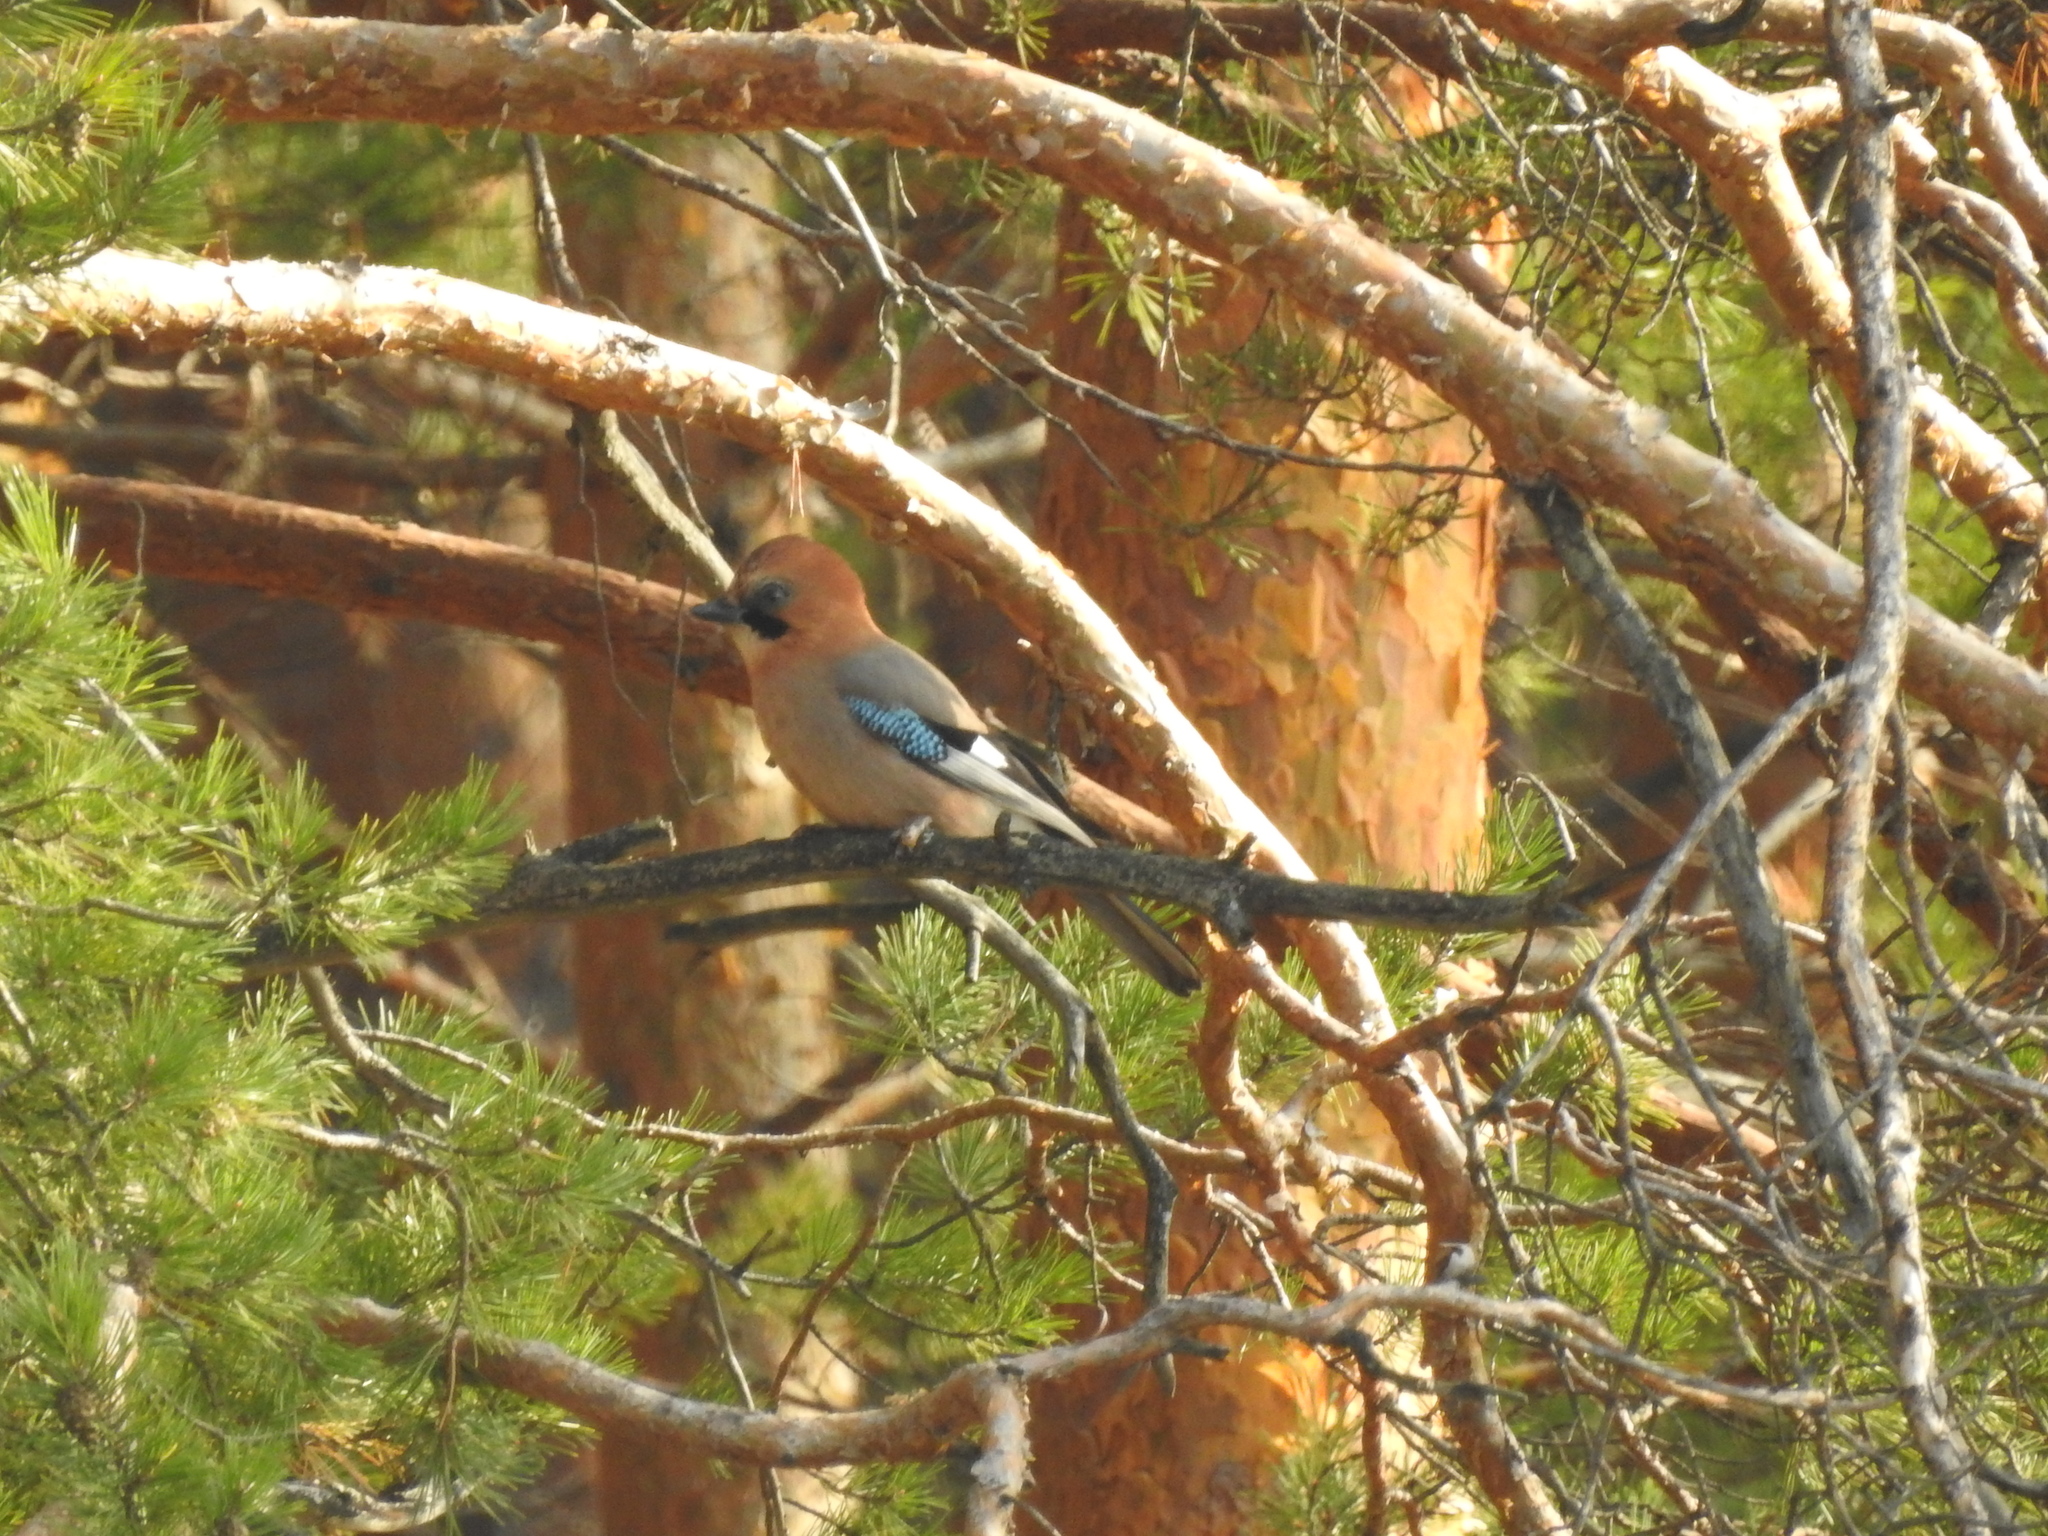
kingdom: Animalia
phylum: Chordata
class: Aves
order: Passeriformes
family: Corvidae
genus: Garrulus
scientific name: Garrulus glandarius
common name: Eurasian jay
